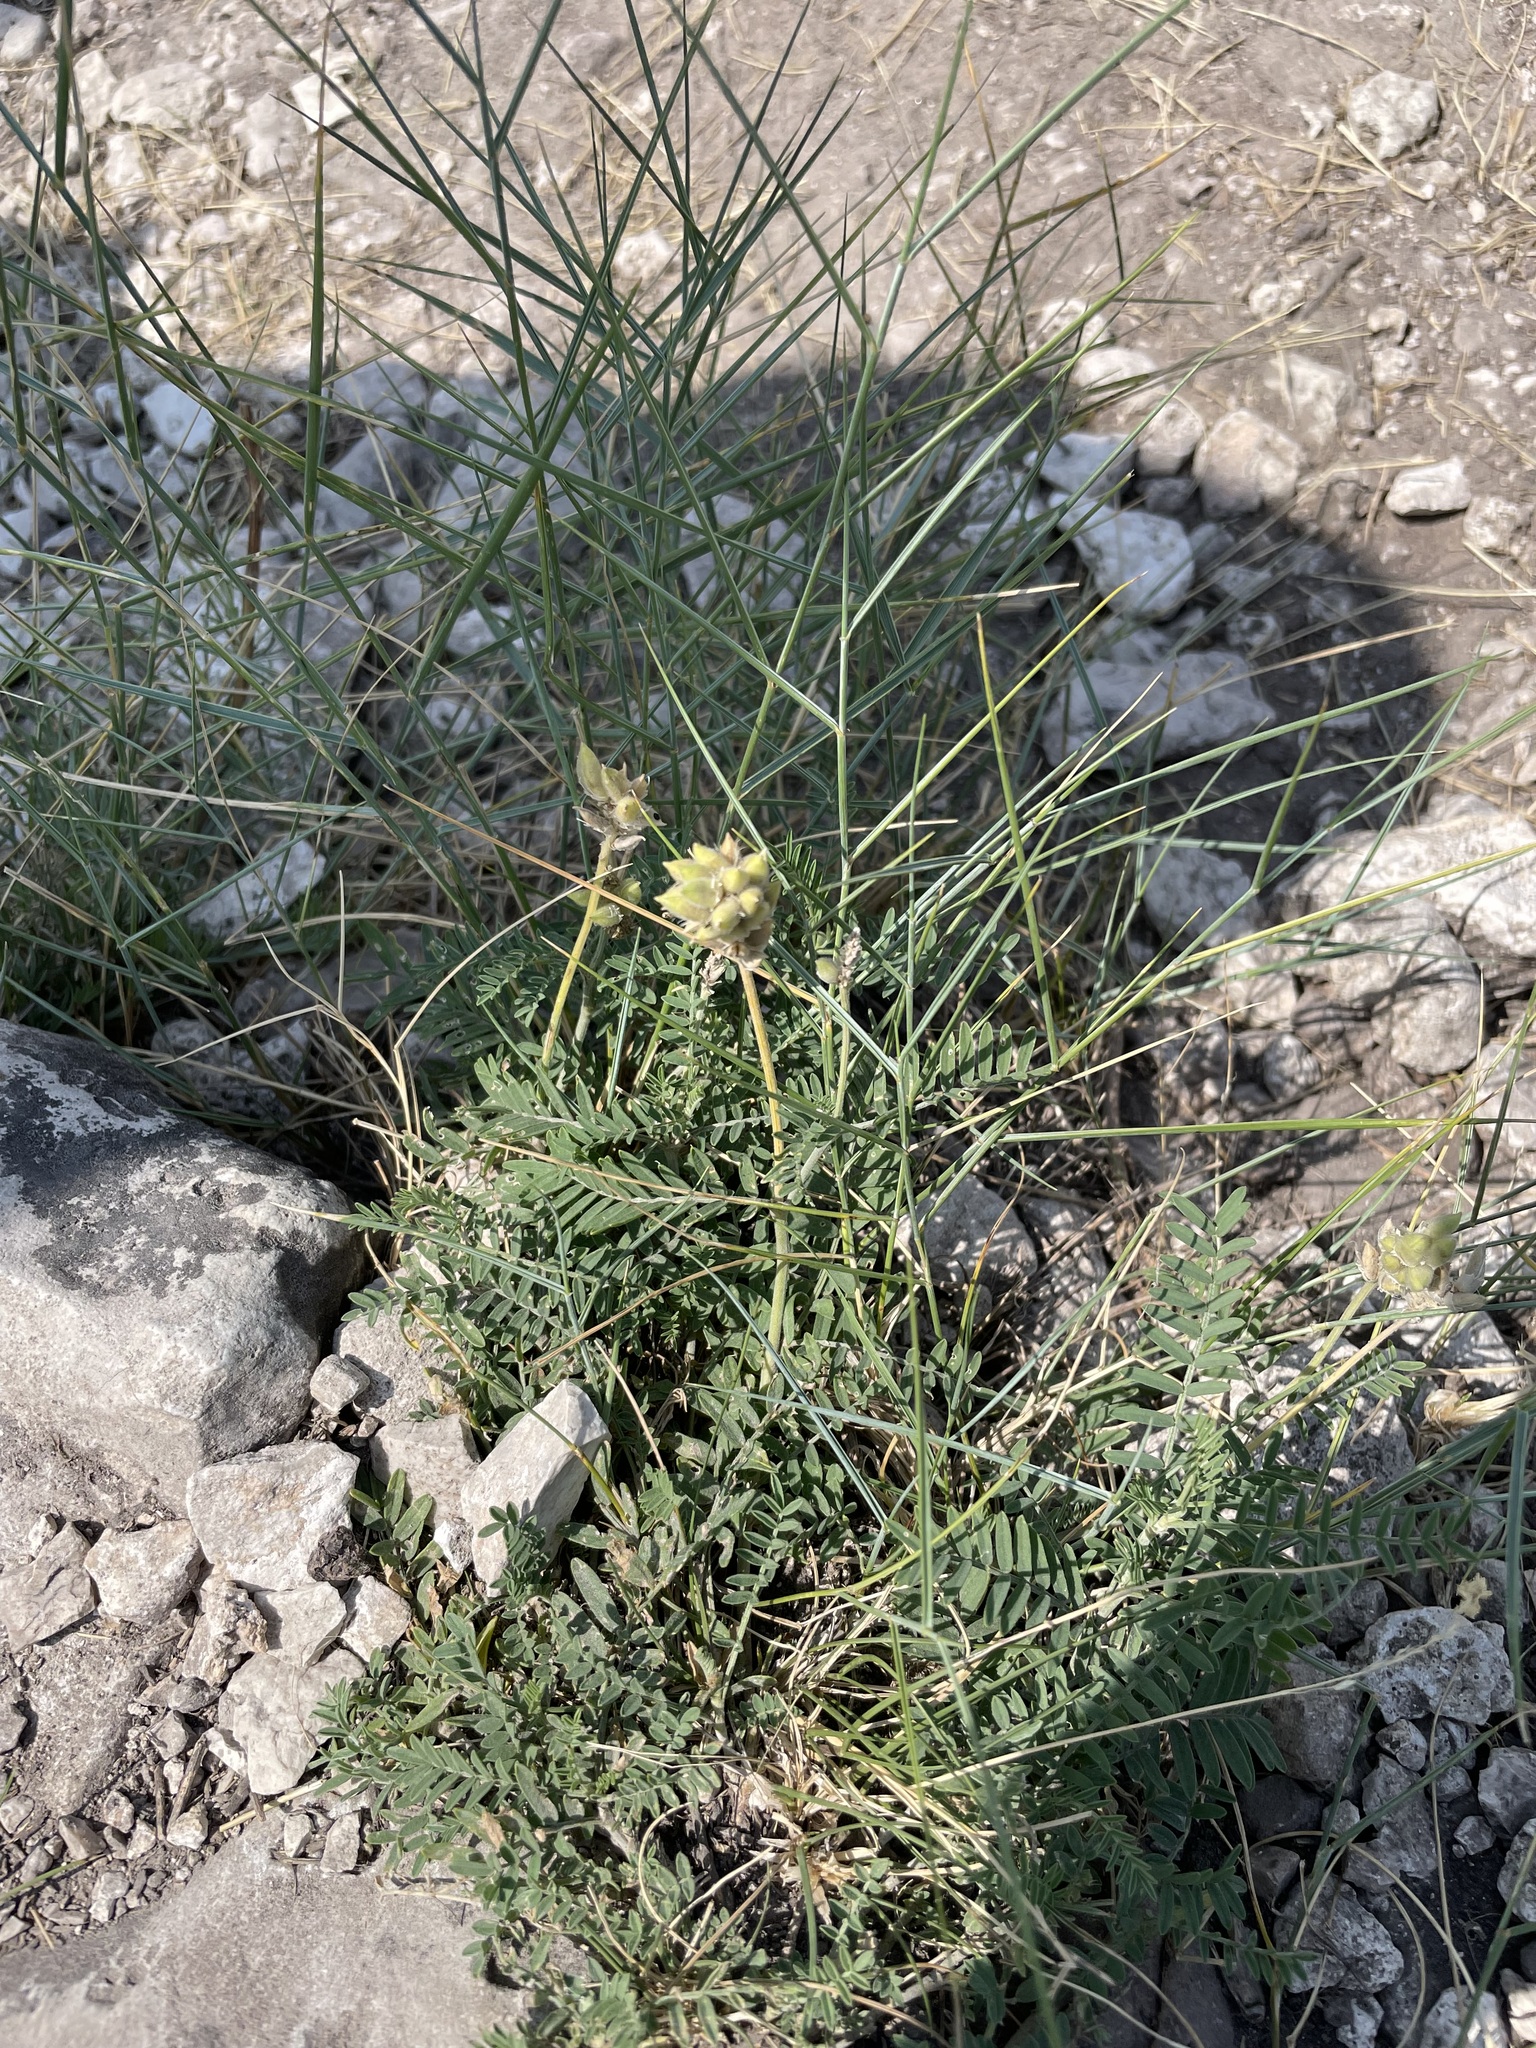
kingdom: Plantae
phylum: Tracheophyta
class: Magnoliopsida
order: Fabales
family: Fabaceae
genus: Astragalus
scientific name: Astragalus zingeri
